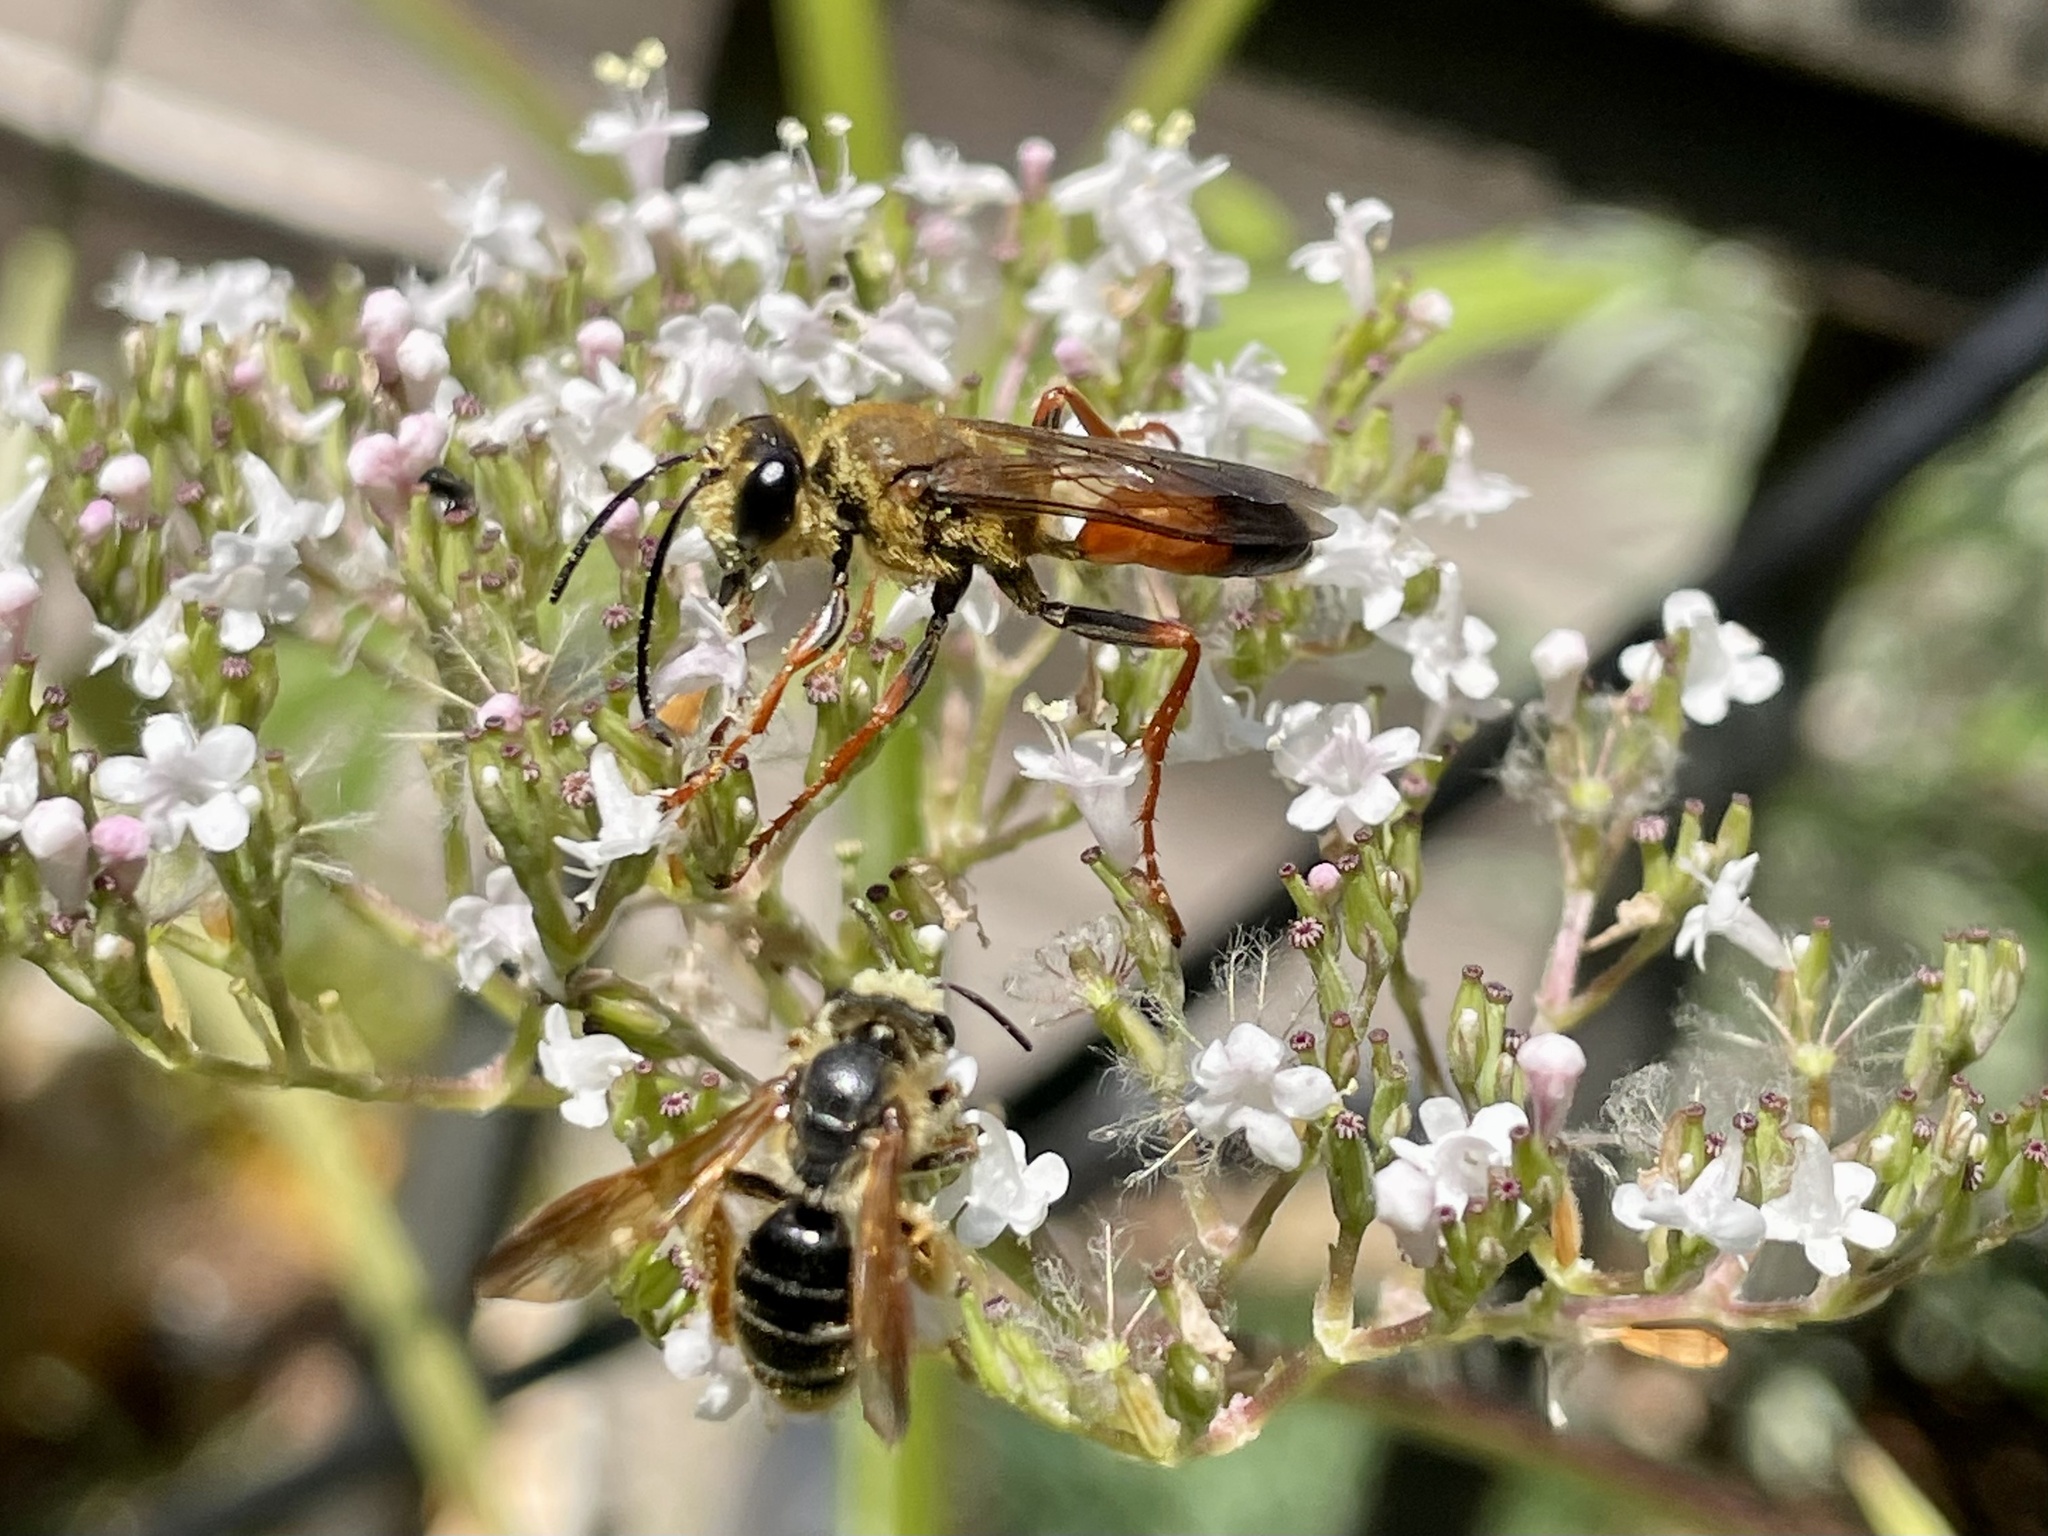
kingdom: Animalia
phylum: Arthropoda
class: Insecta
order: Hymenoptera
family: Sphecidae
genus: Sphex
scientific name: Sphex ichneumoneus
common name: Great golden digger wasp
